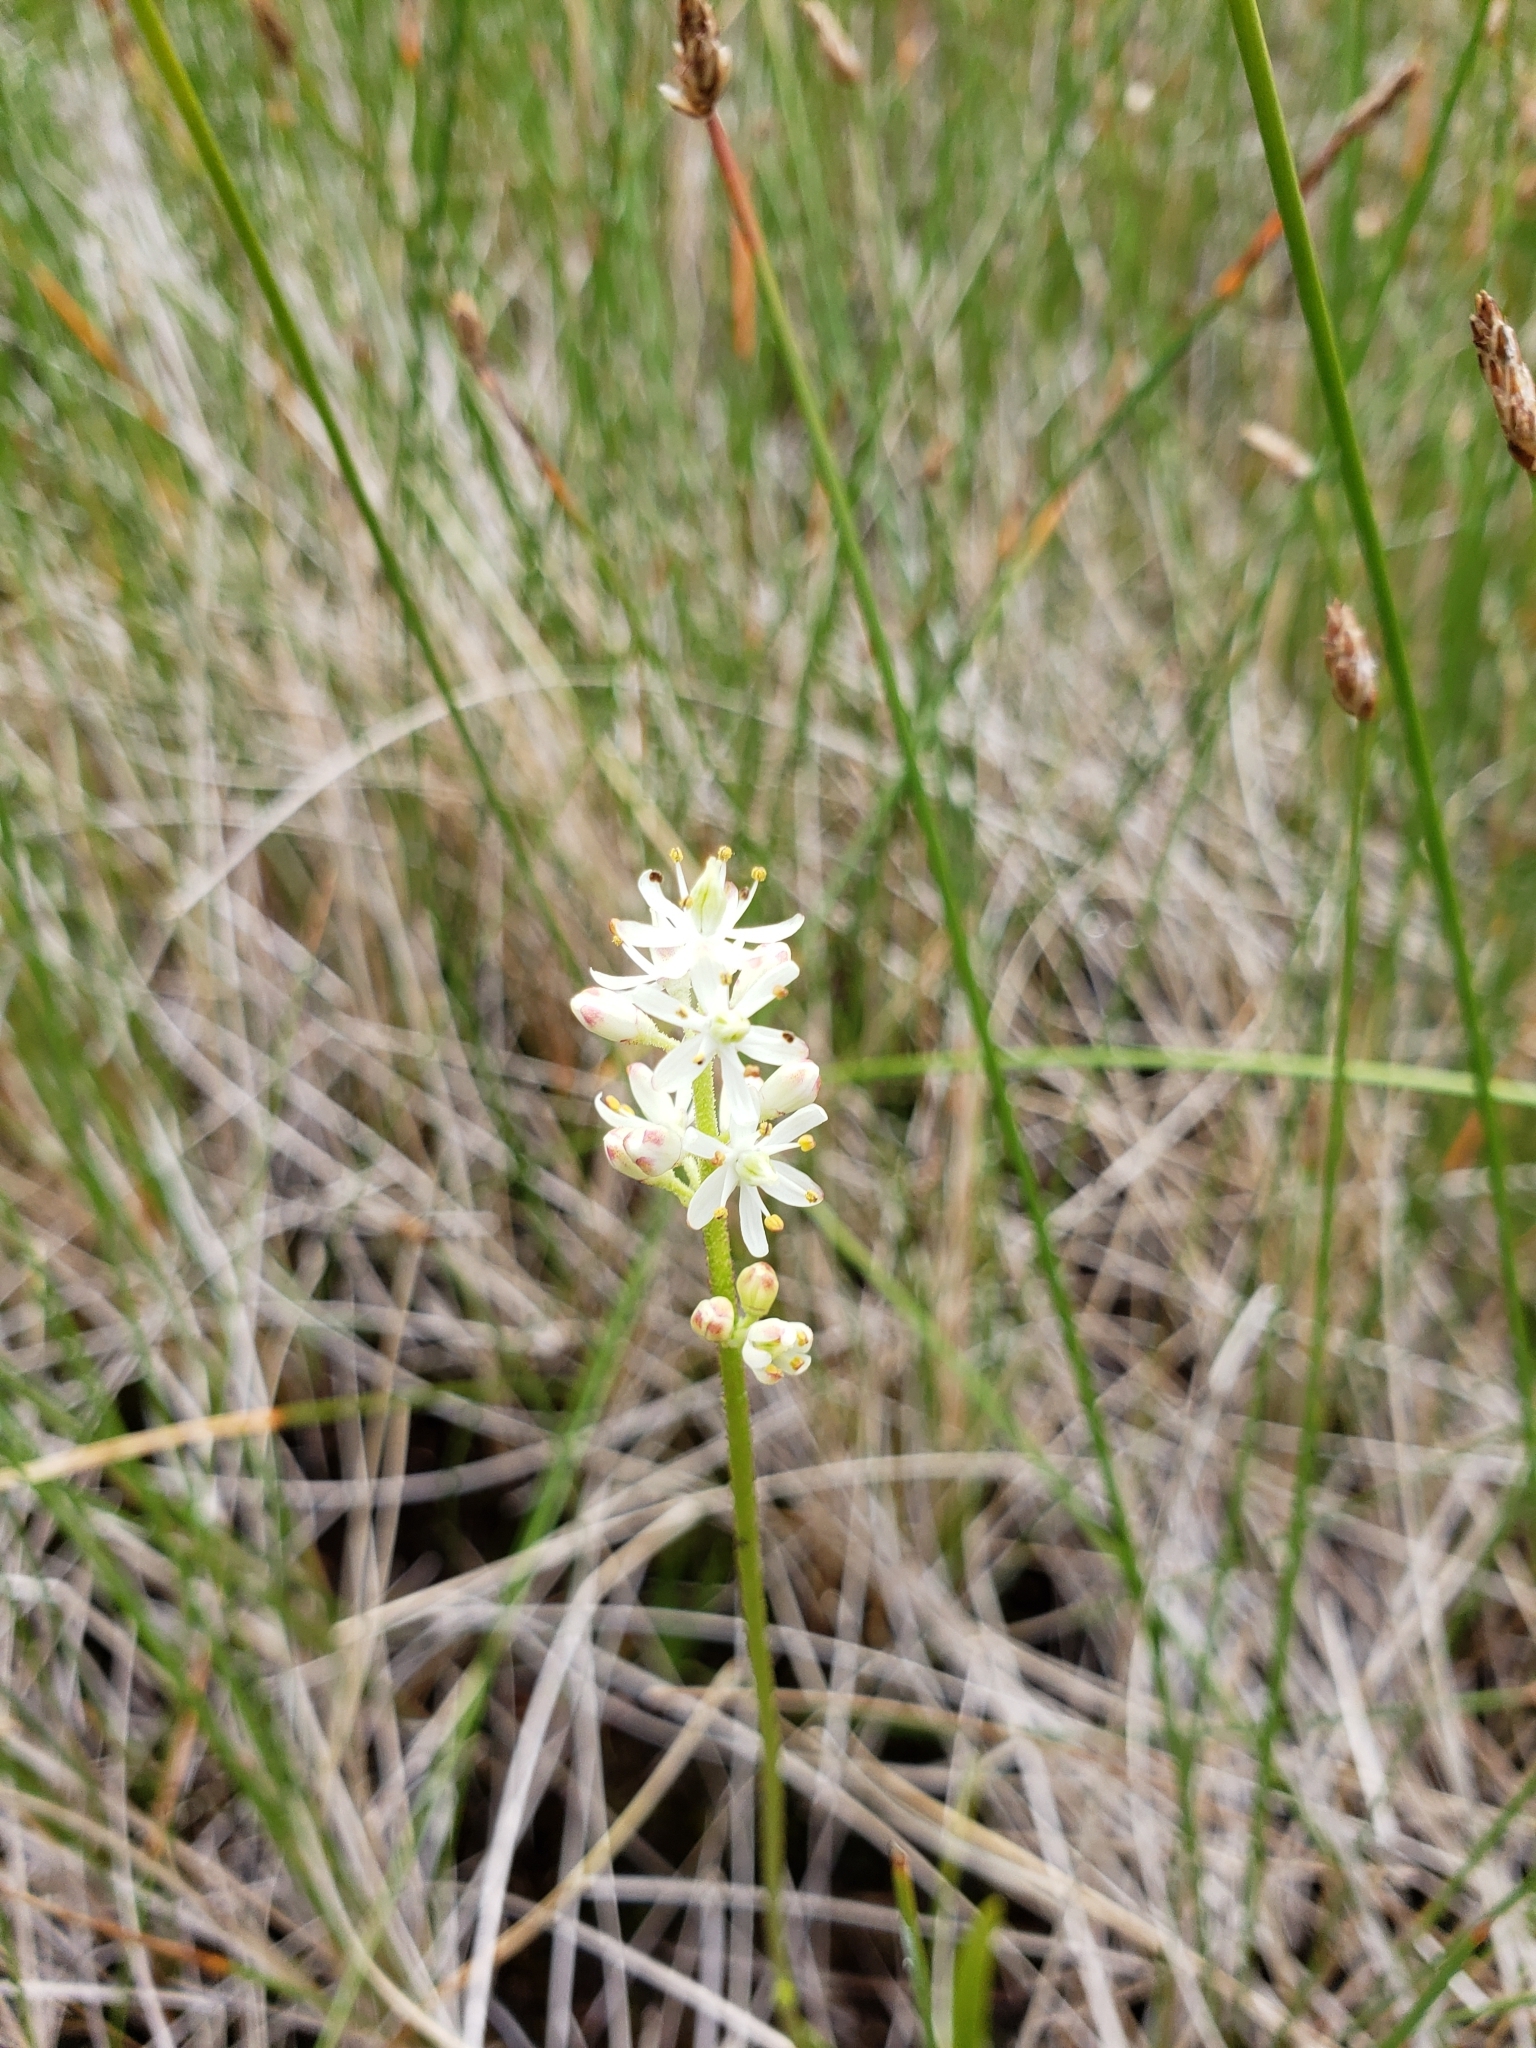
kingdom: Plantae
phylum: Tracheophyta
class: Liliopsida
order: Alismatales
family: Tofieldiaceae
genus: Triantha
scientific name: Triantha glutinosa
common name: Glutinous tofieldia
